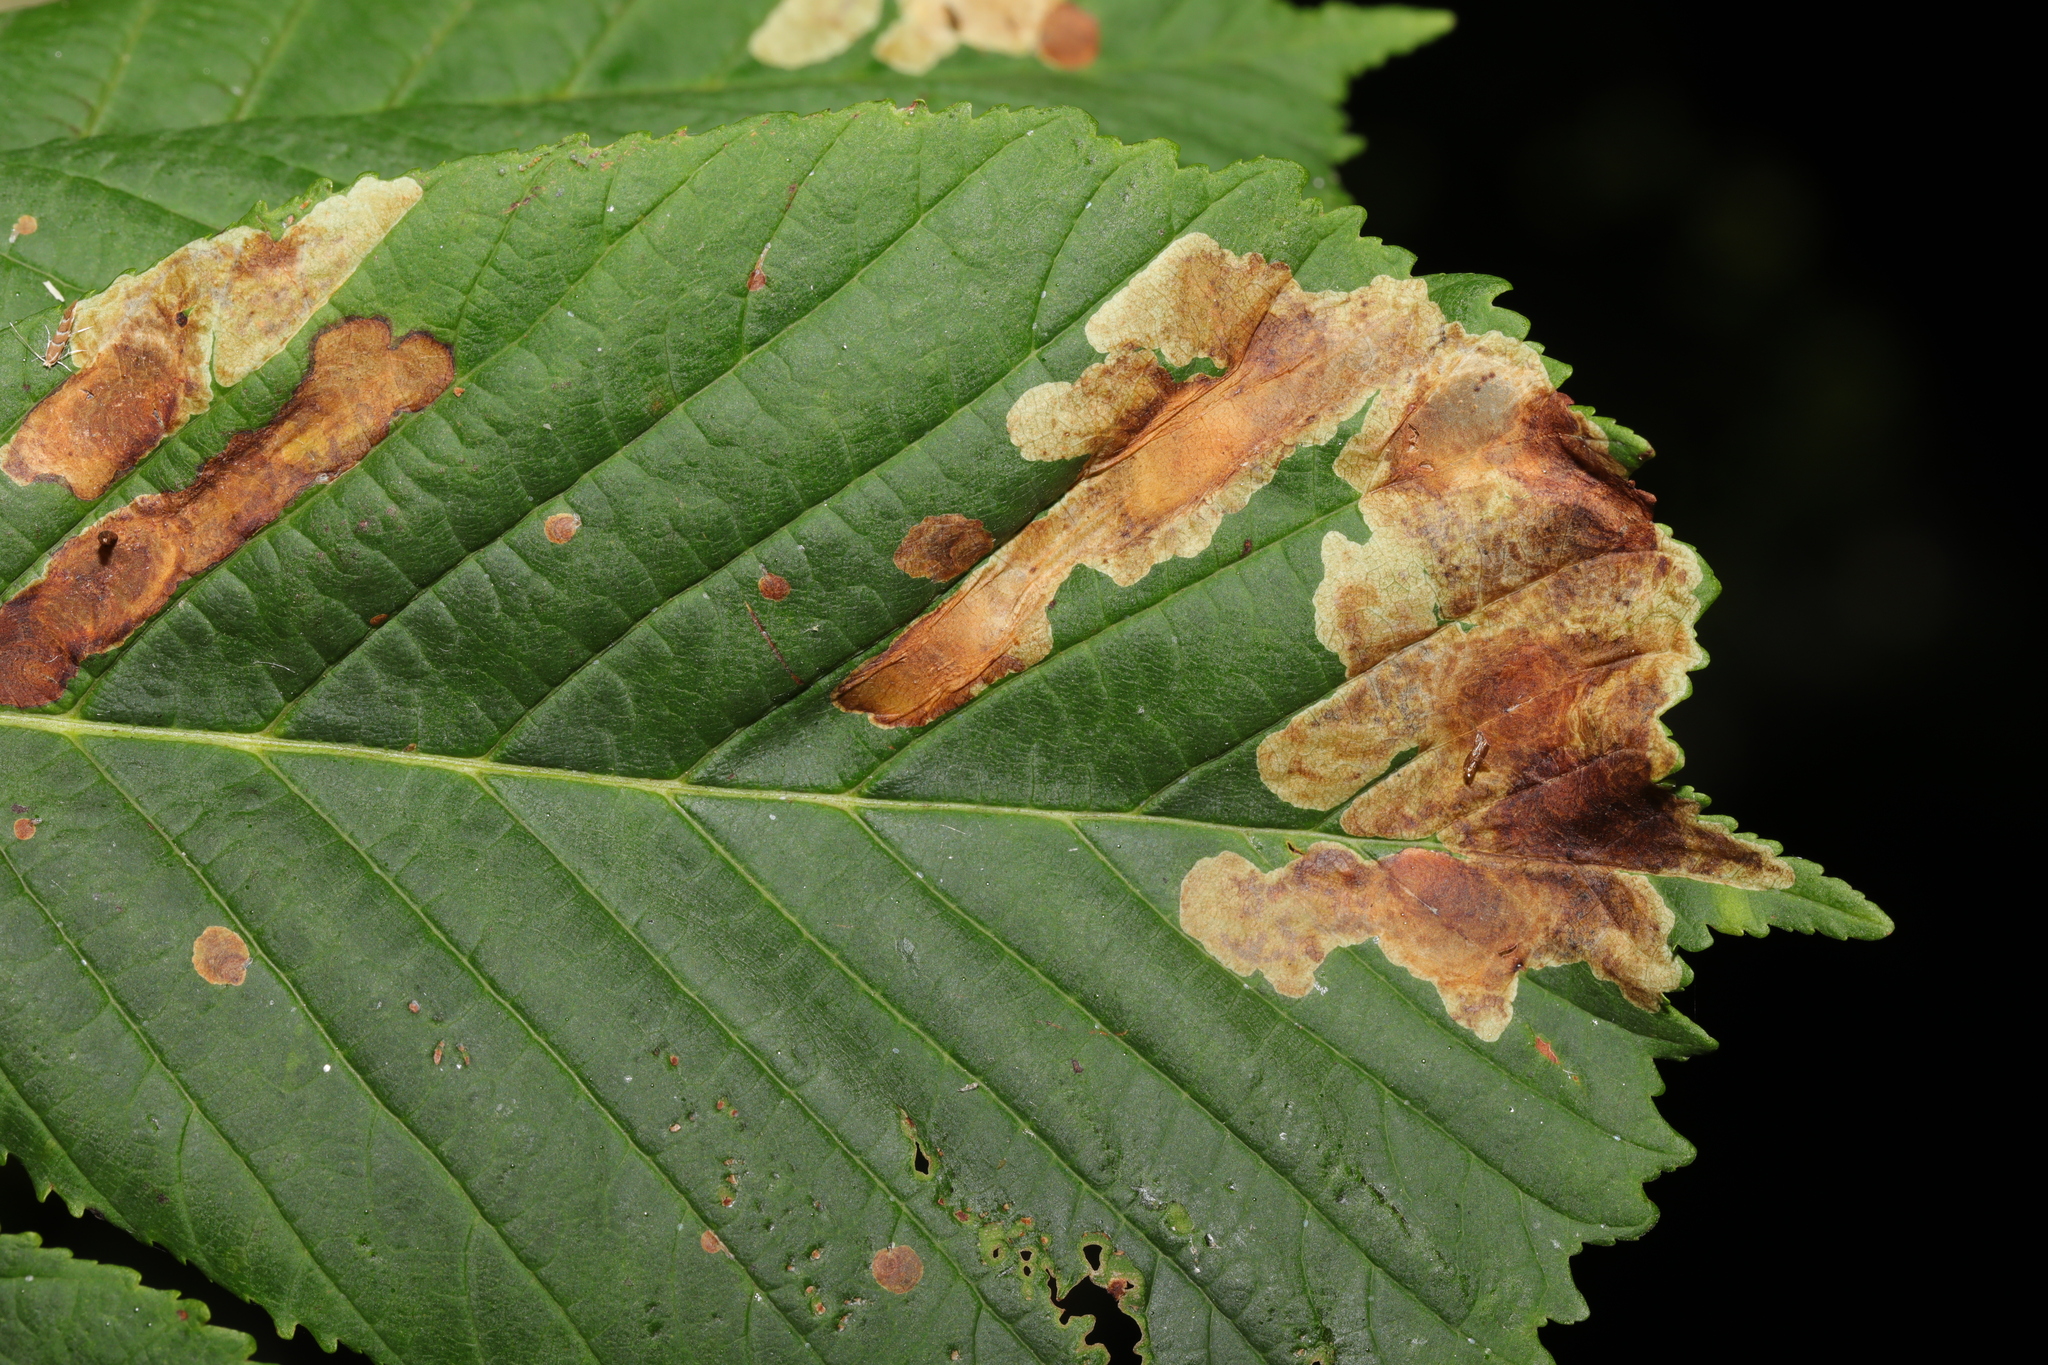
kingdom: Animalia
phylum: Arthropoda
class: Insecta
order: Lepidoptera
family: Gracillariidae
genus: Cameraria
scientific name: Cameraria ohridella
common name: Horse-chestnut leaf-miner
